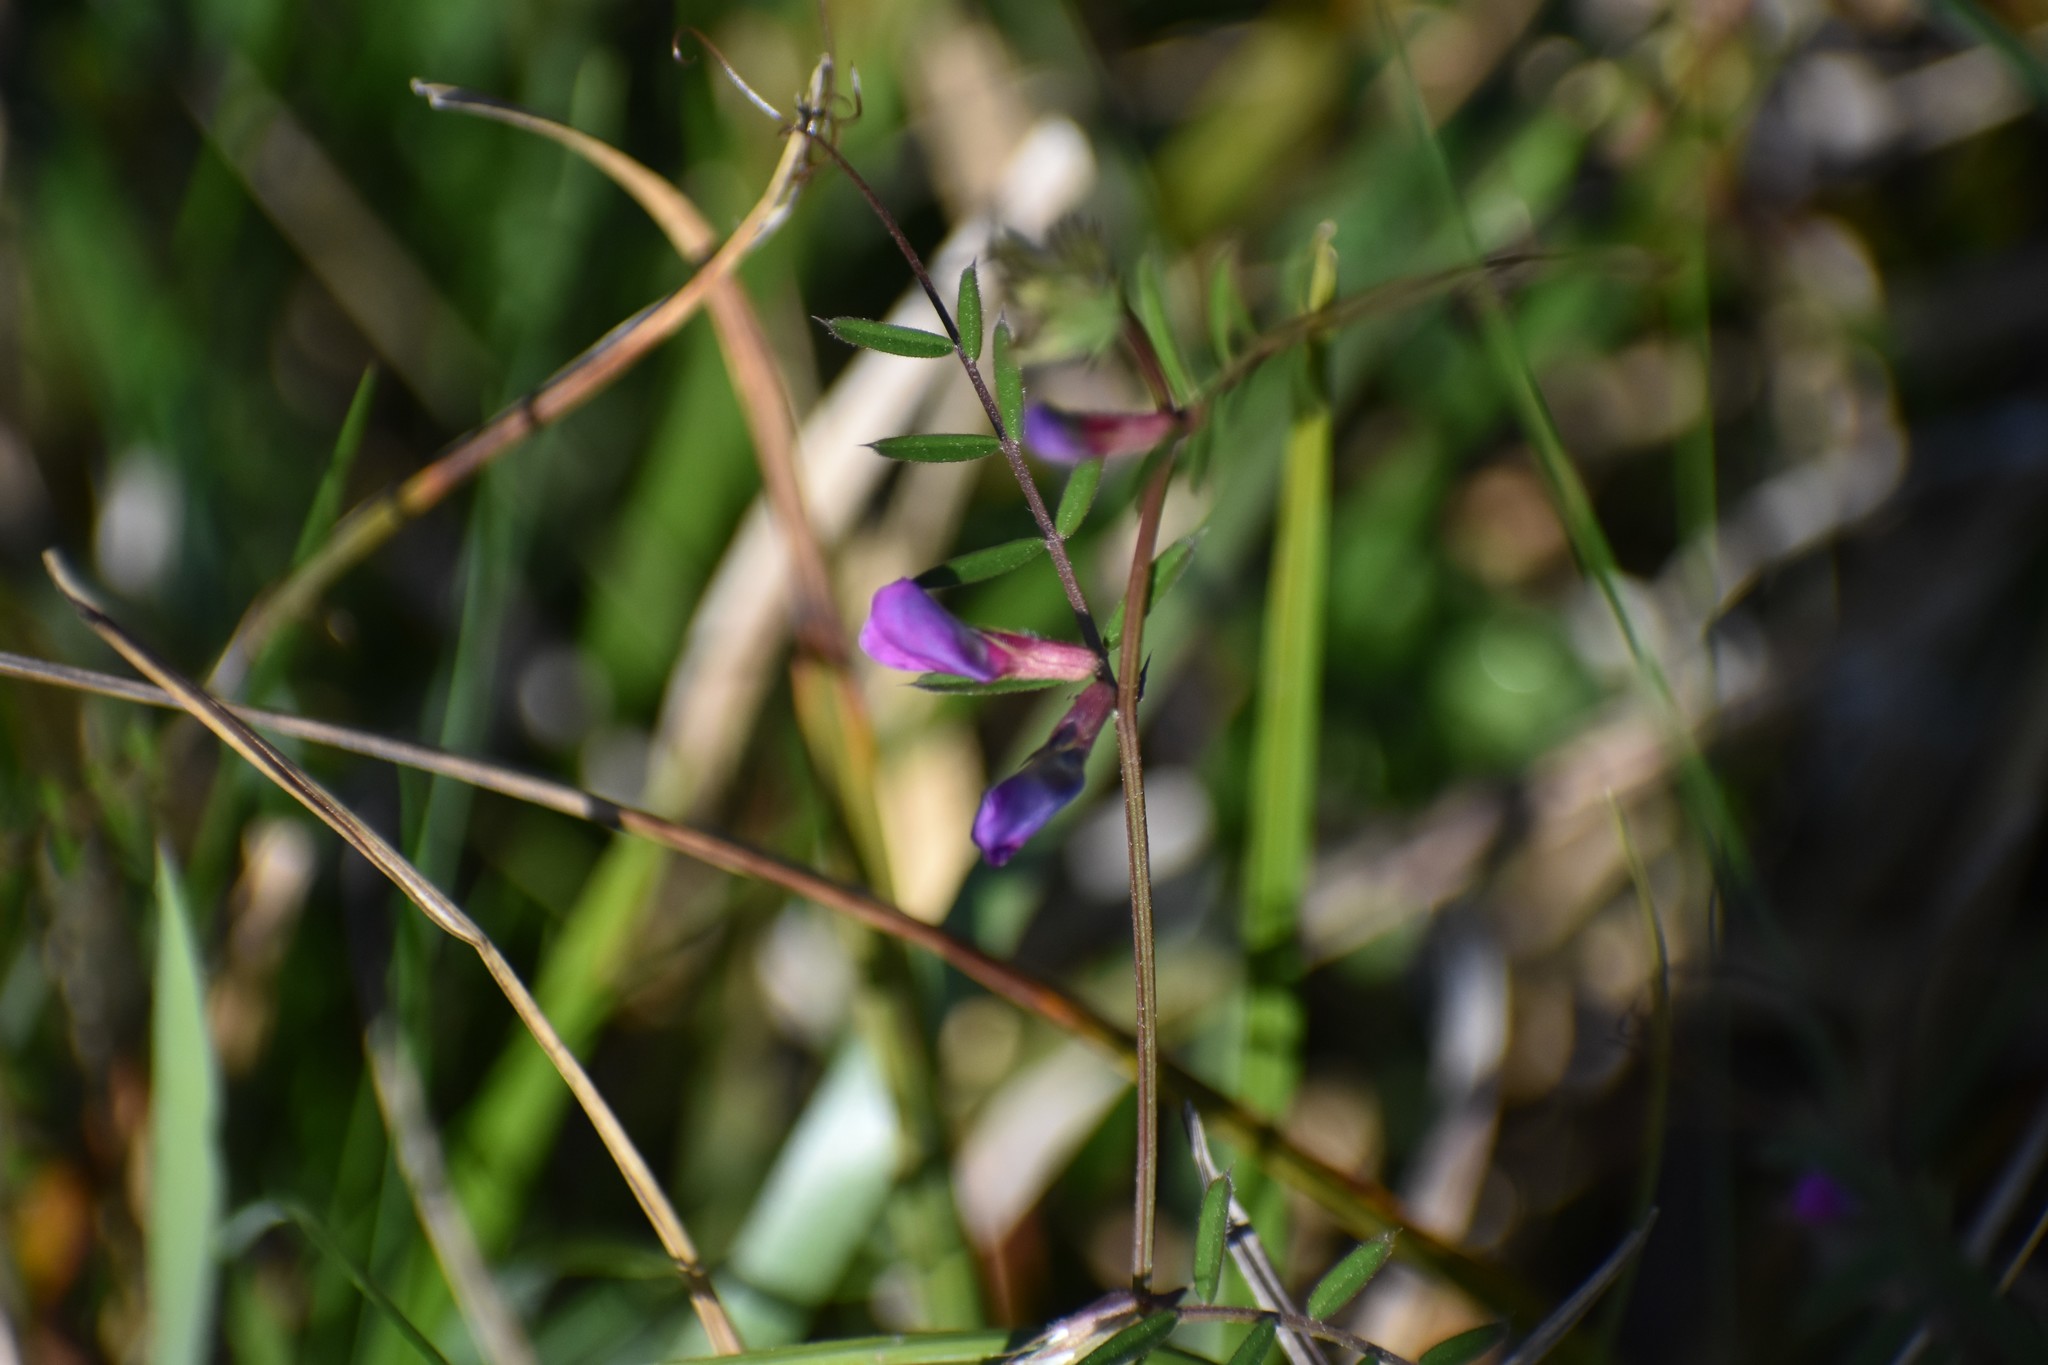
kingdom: Plantae
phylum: Tracheophyta
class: Magnoliopsida
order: Fabales
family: Fabaceae
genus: Vicia
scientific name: Vicia sativa
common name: Garden vetch
